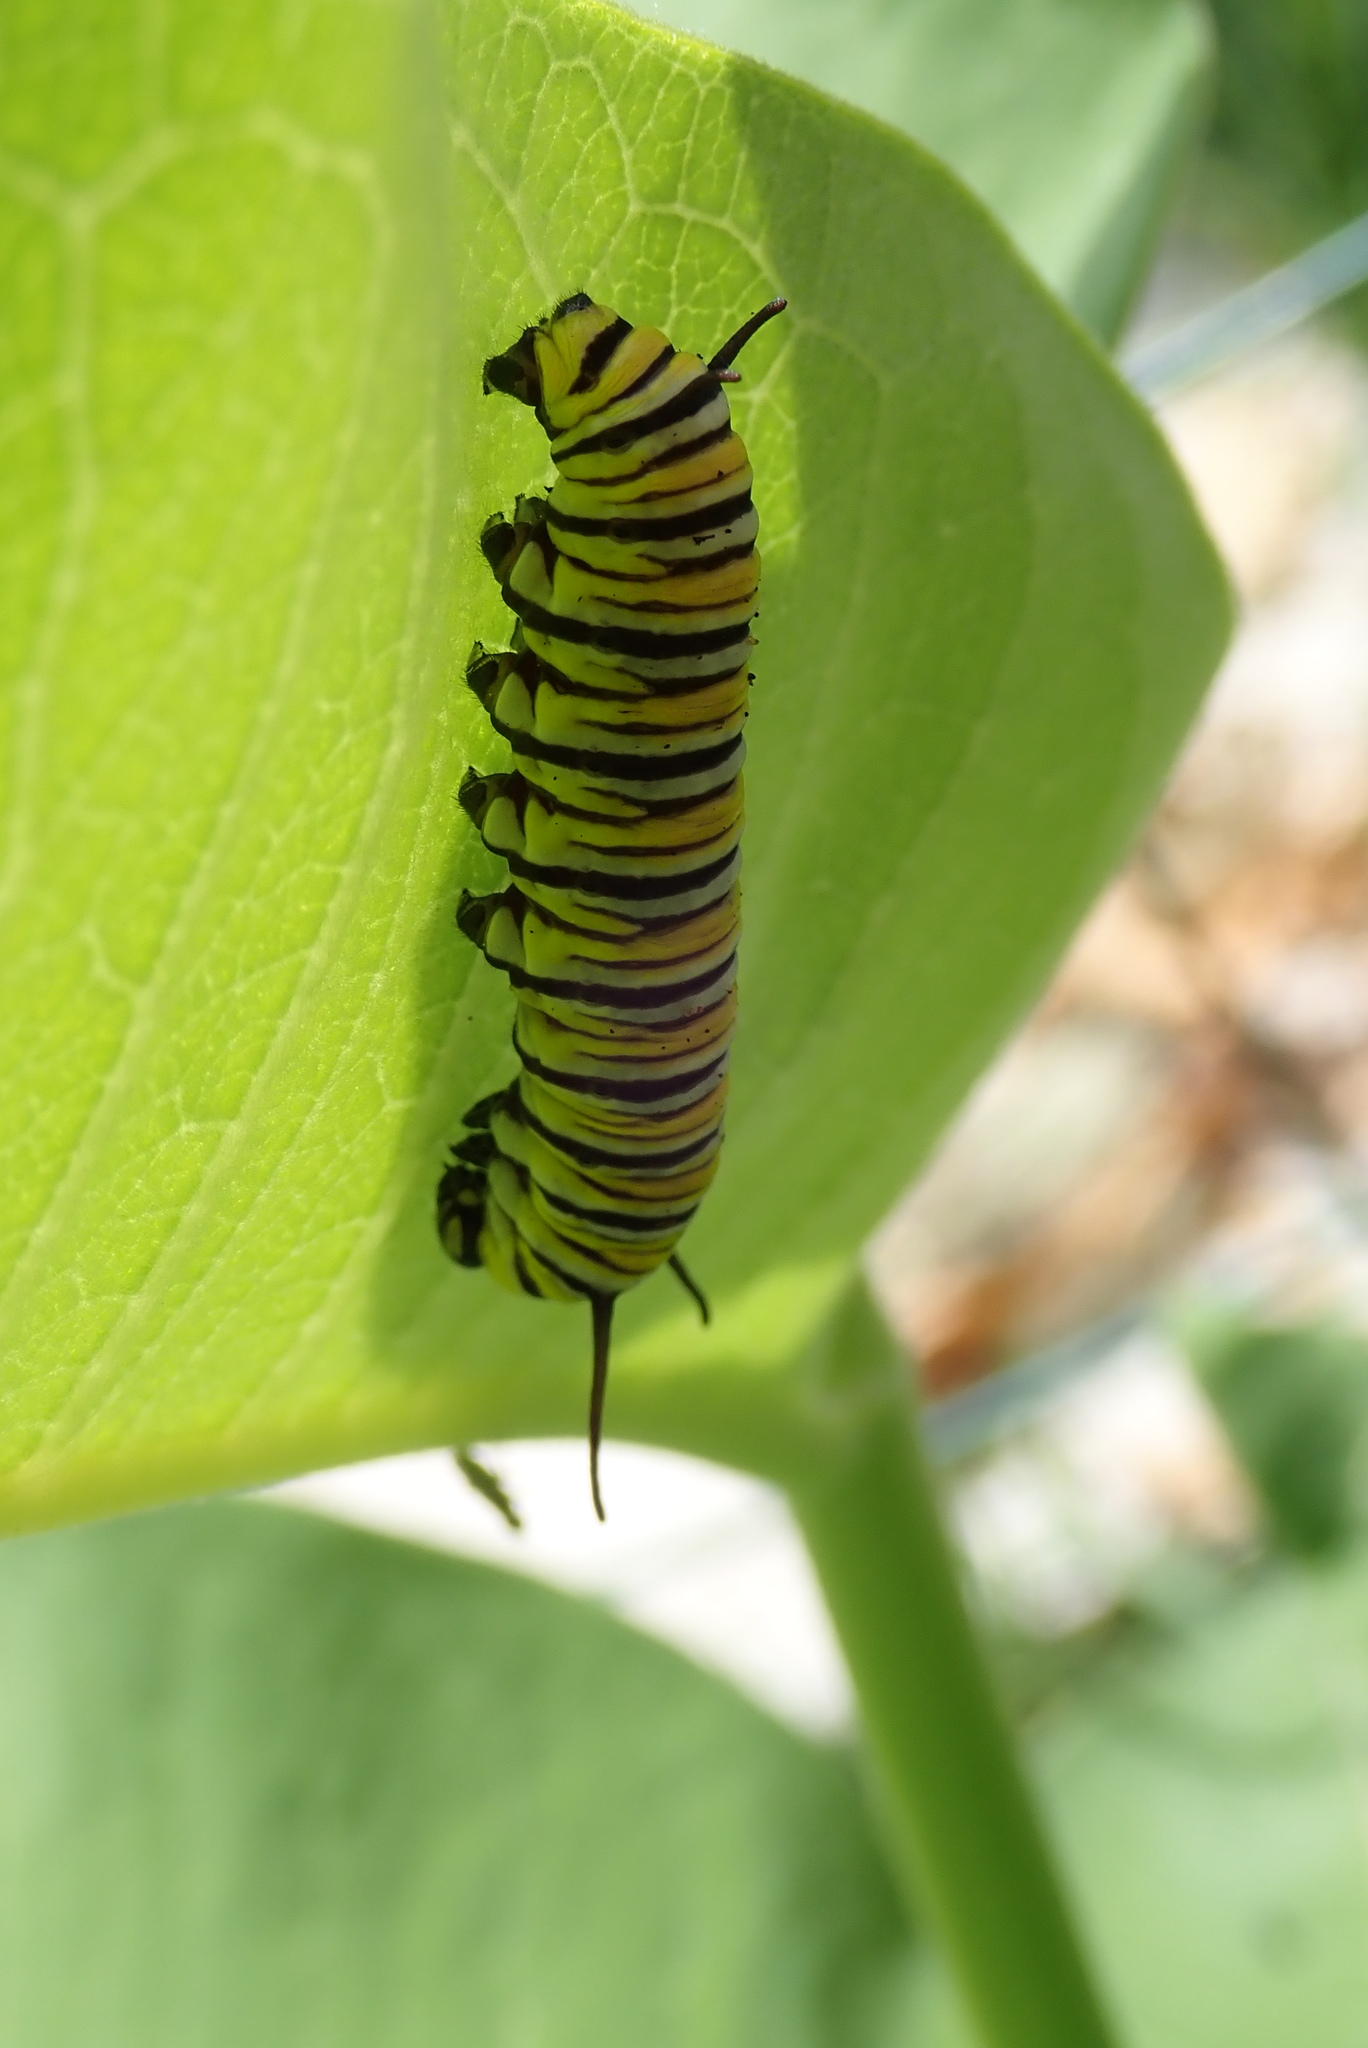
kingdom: Animalia
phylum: Arthropoda
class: Insecta
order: Lepidoptera
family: Nymphalidae
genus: Danaus
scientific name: Danaus plexippus
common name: Monarch
